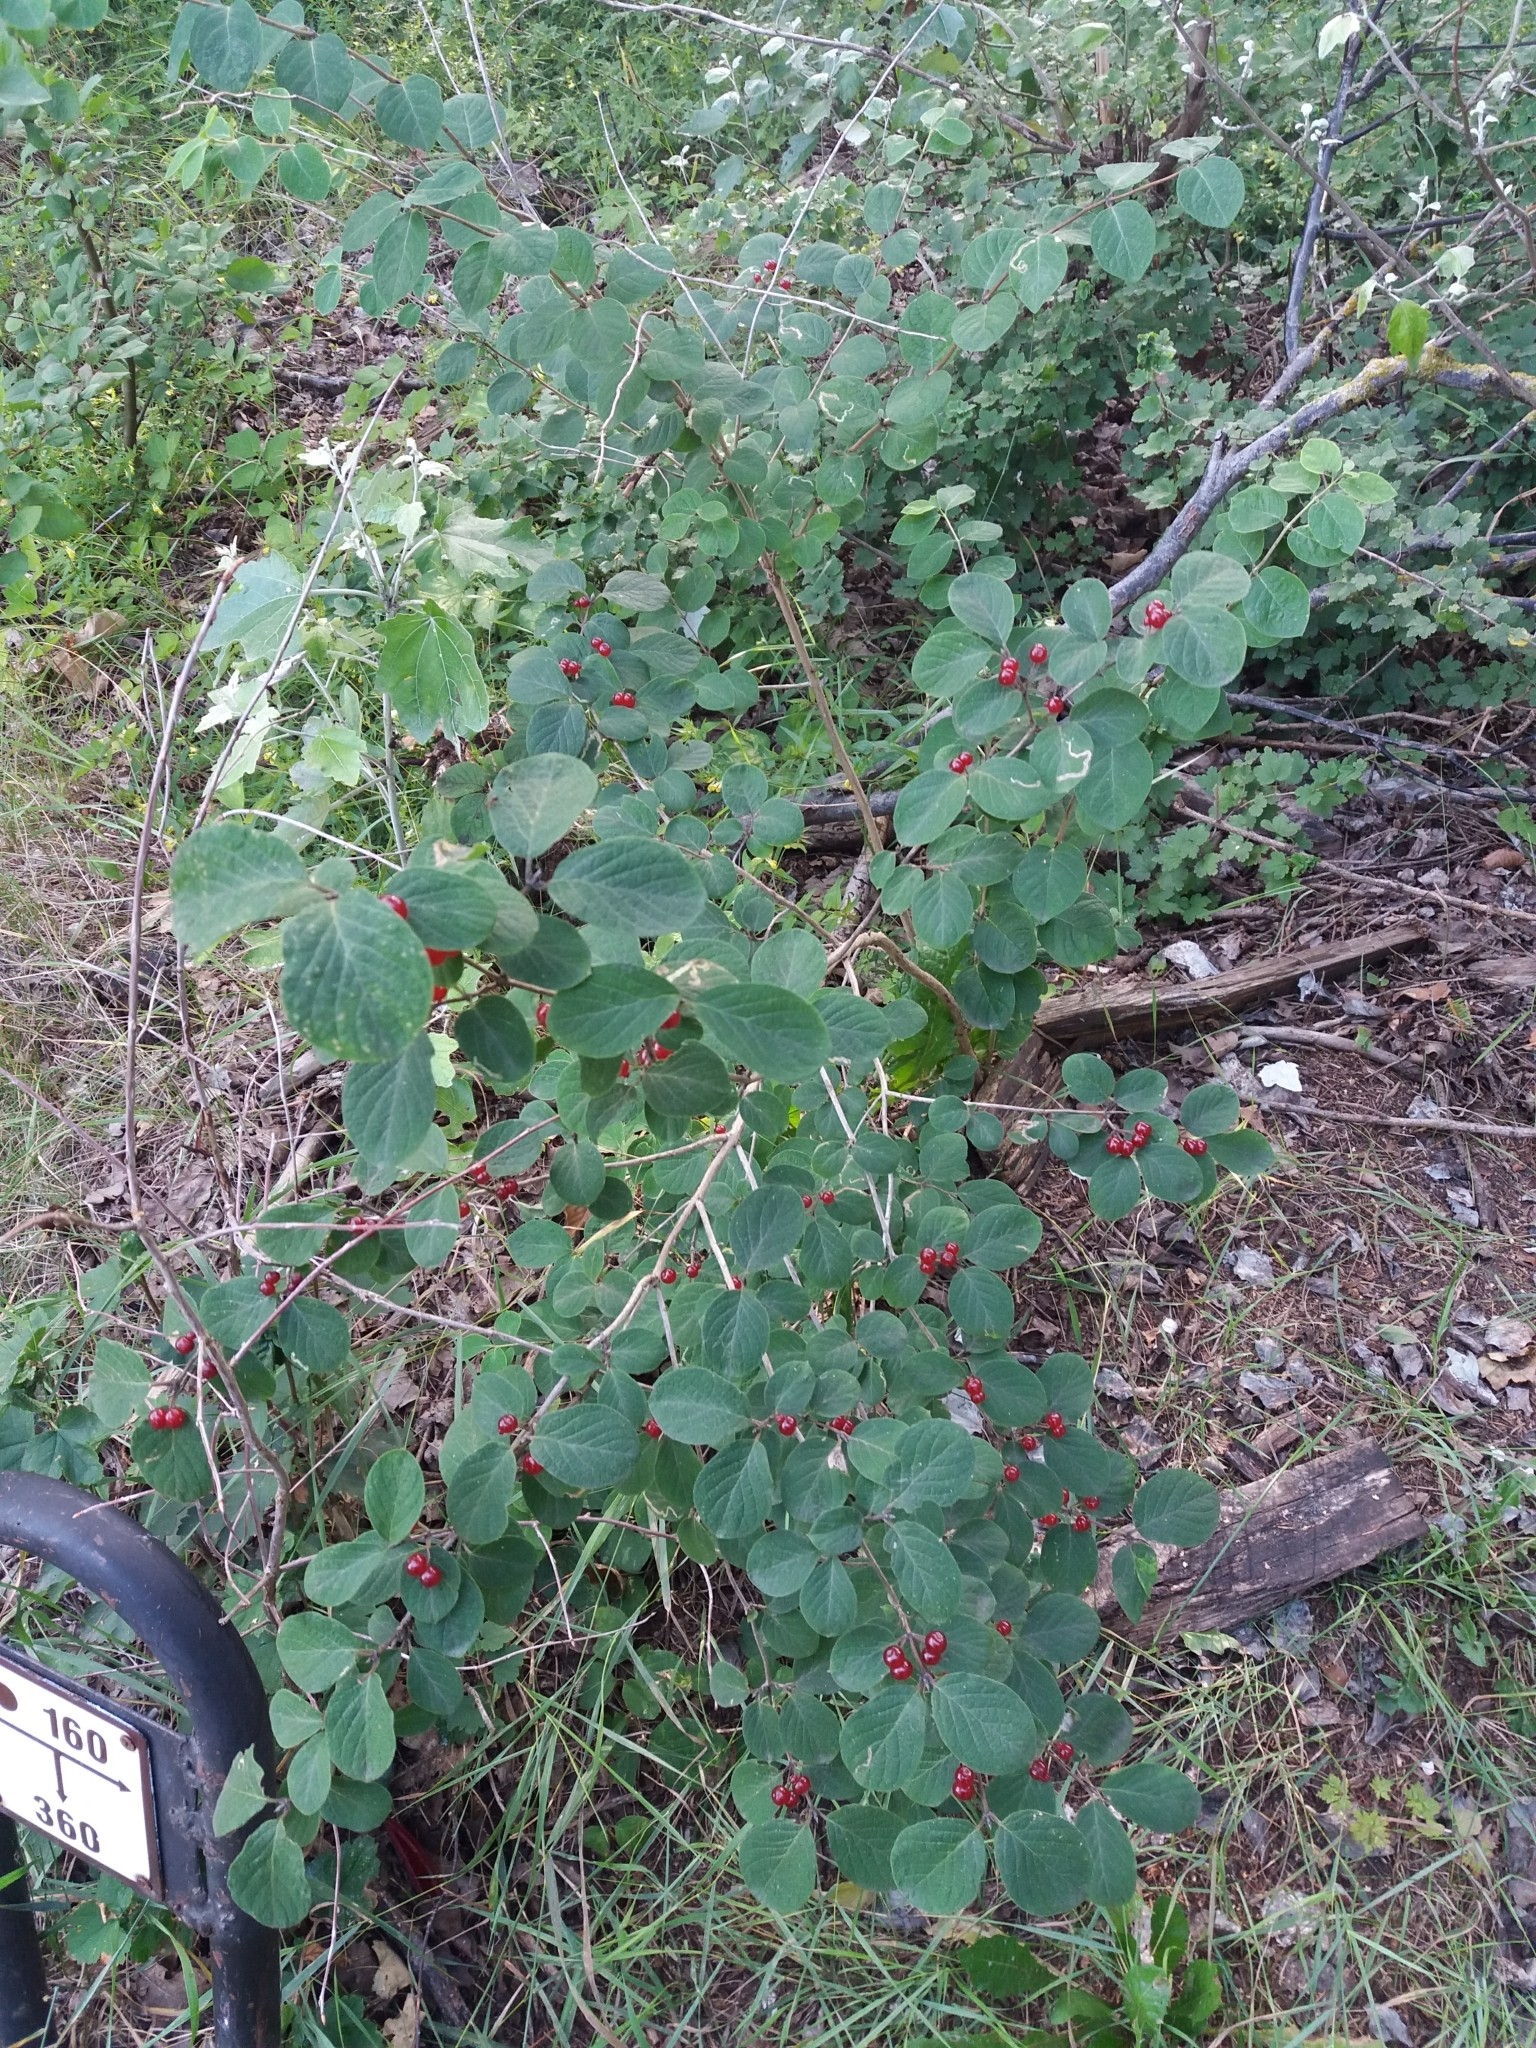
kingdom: Plantae
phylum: Tracheophyta
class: Magnoliopsida
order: Dipsacales
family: Caprifoliaceae
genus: Lonicera
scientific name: Lonicera xylosteum
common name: Fly honeysuckle
